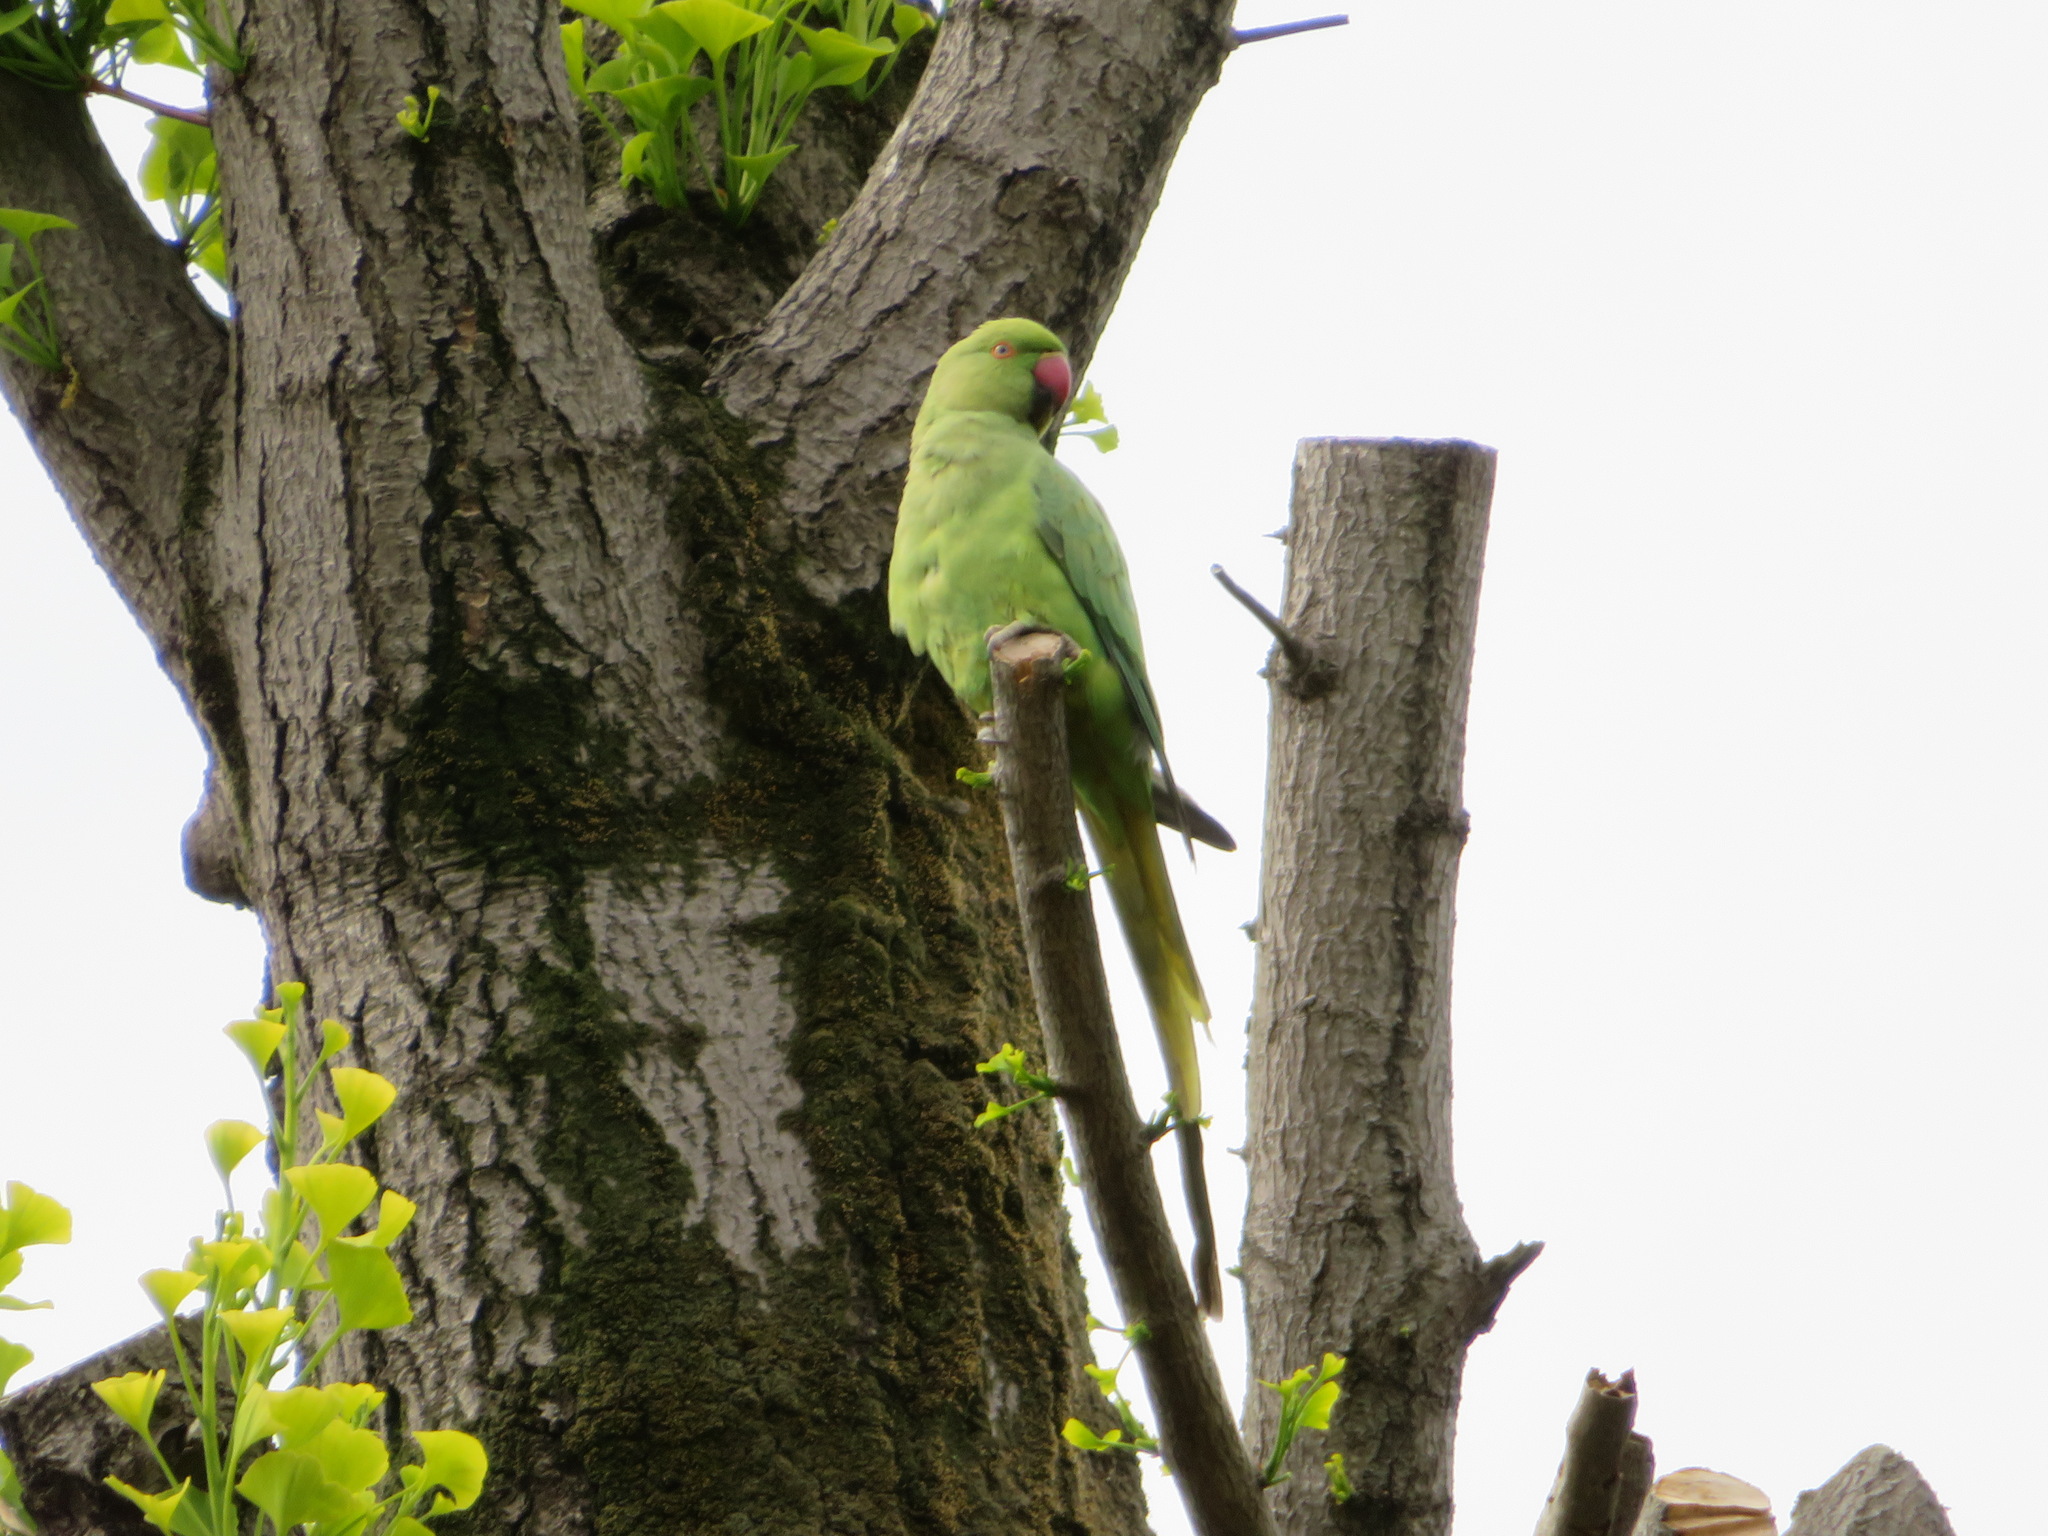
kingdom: Animalia
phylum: Chordata
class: Aves
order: Psittaciformes
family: Psittacidae
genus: Psittacula
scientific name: Psittacula krameri
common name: Rose-ringed parakeet
